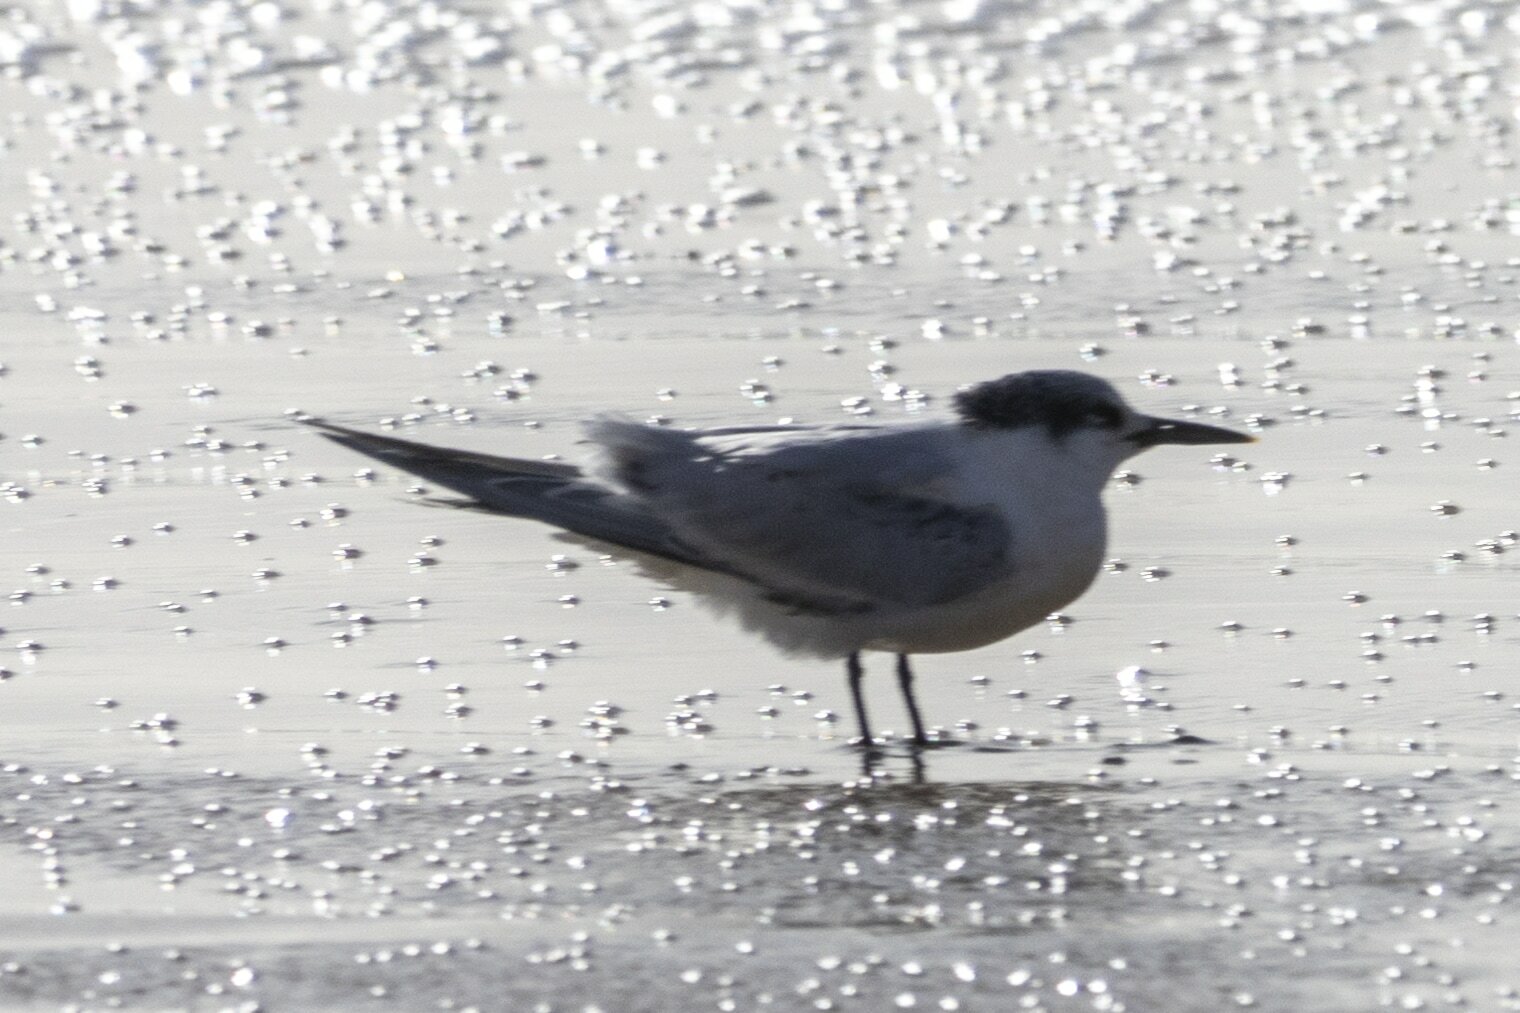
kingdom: Animalia
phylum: Chordata
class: Aves
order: Charadriiformes
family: Laridae
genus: Thalasseus
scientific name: Thalasseus sandvicensis
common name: Sandwich tern
